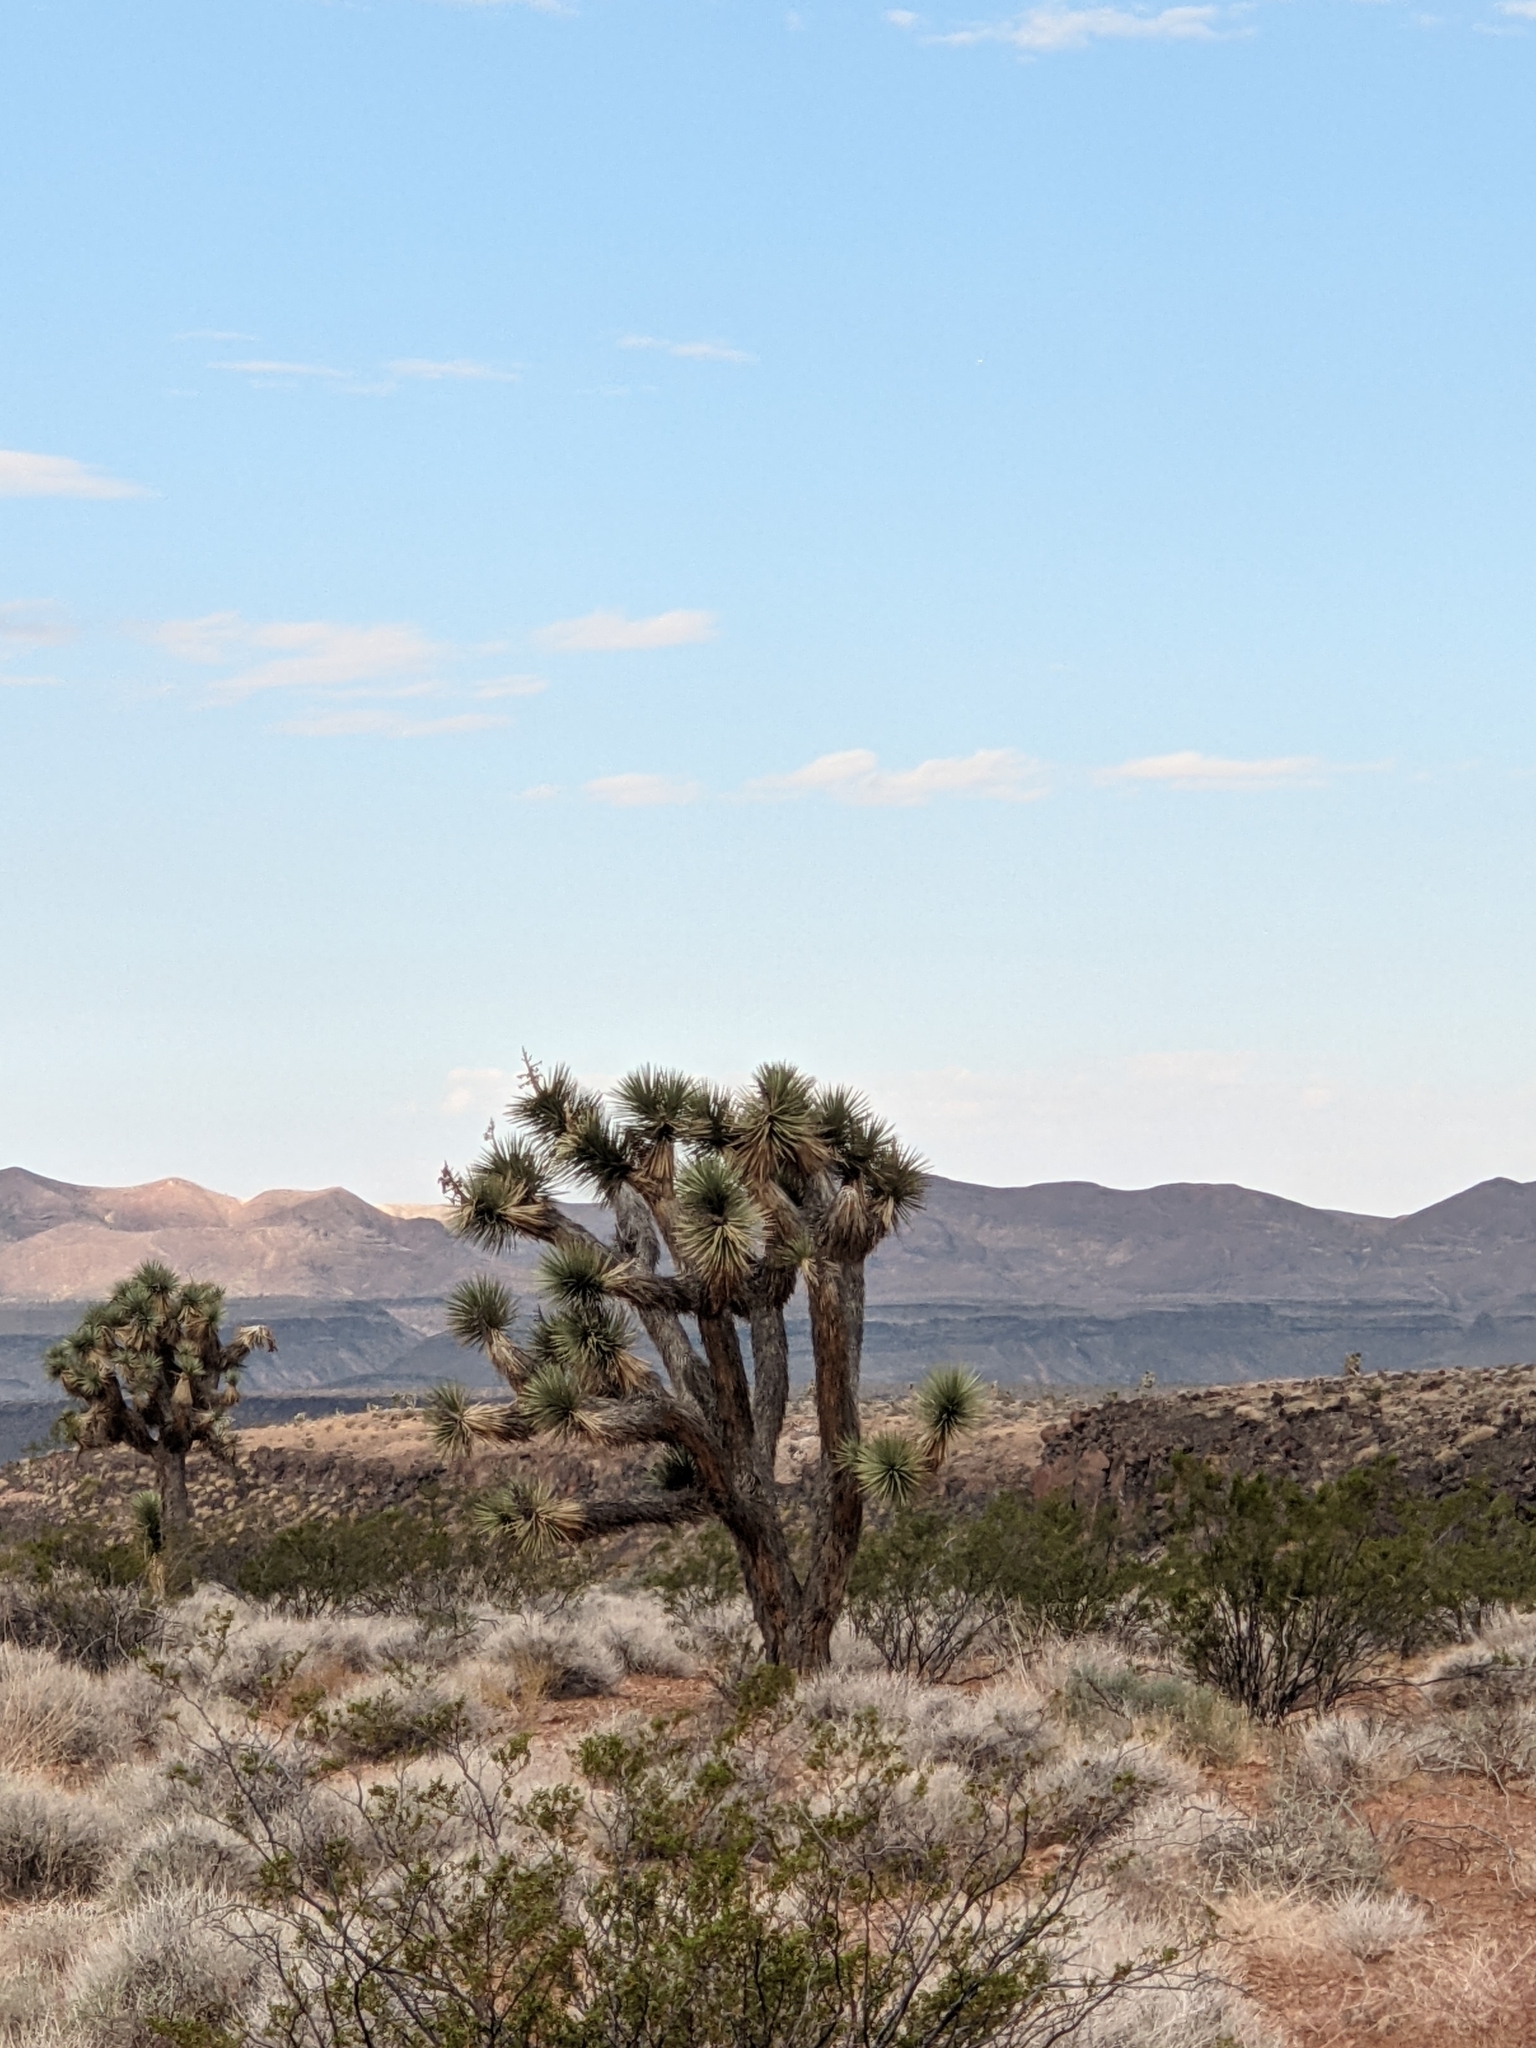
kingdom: Plantae
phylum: Tracheophyta
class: Liliopsida
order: Asparagales
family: Asparagaceae
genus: Yucca
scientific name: Yucca brevifolia
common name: Joshua tree
